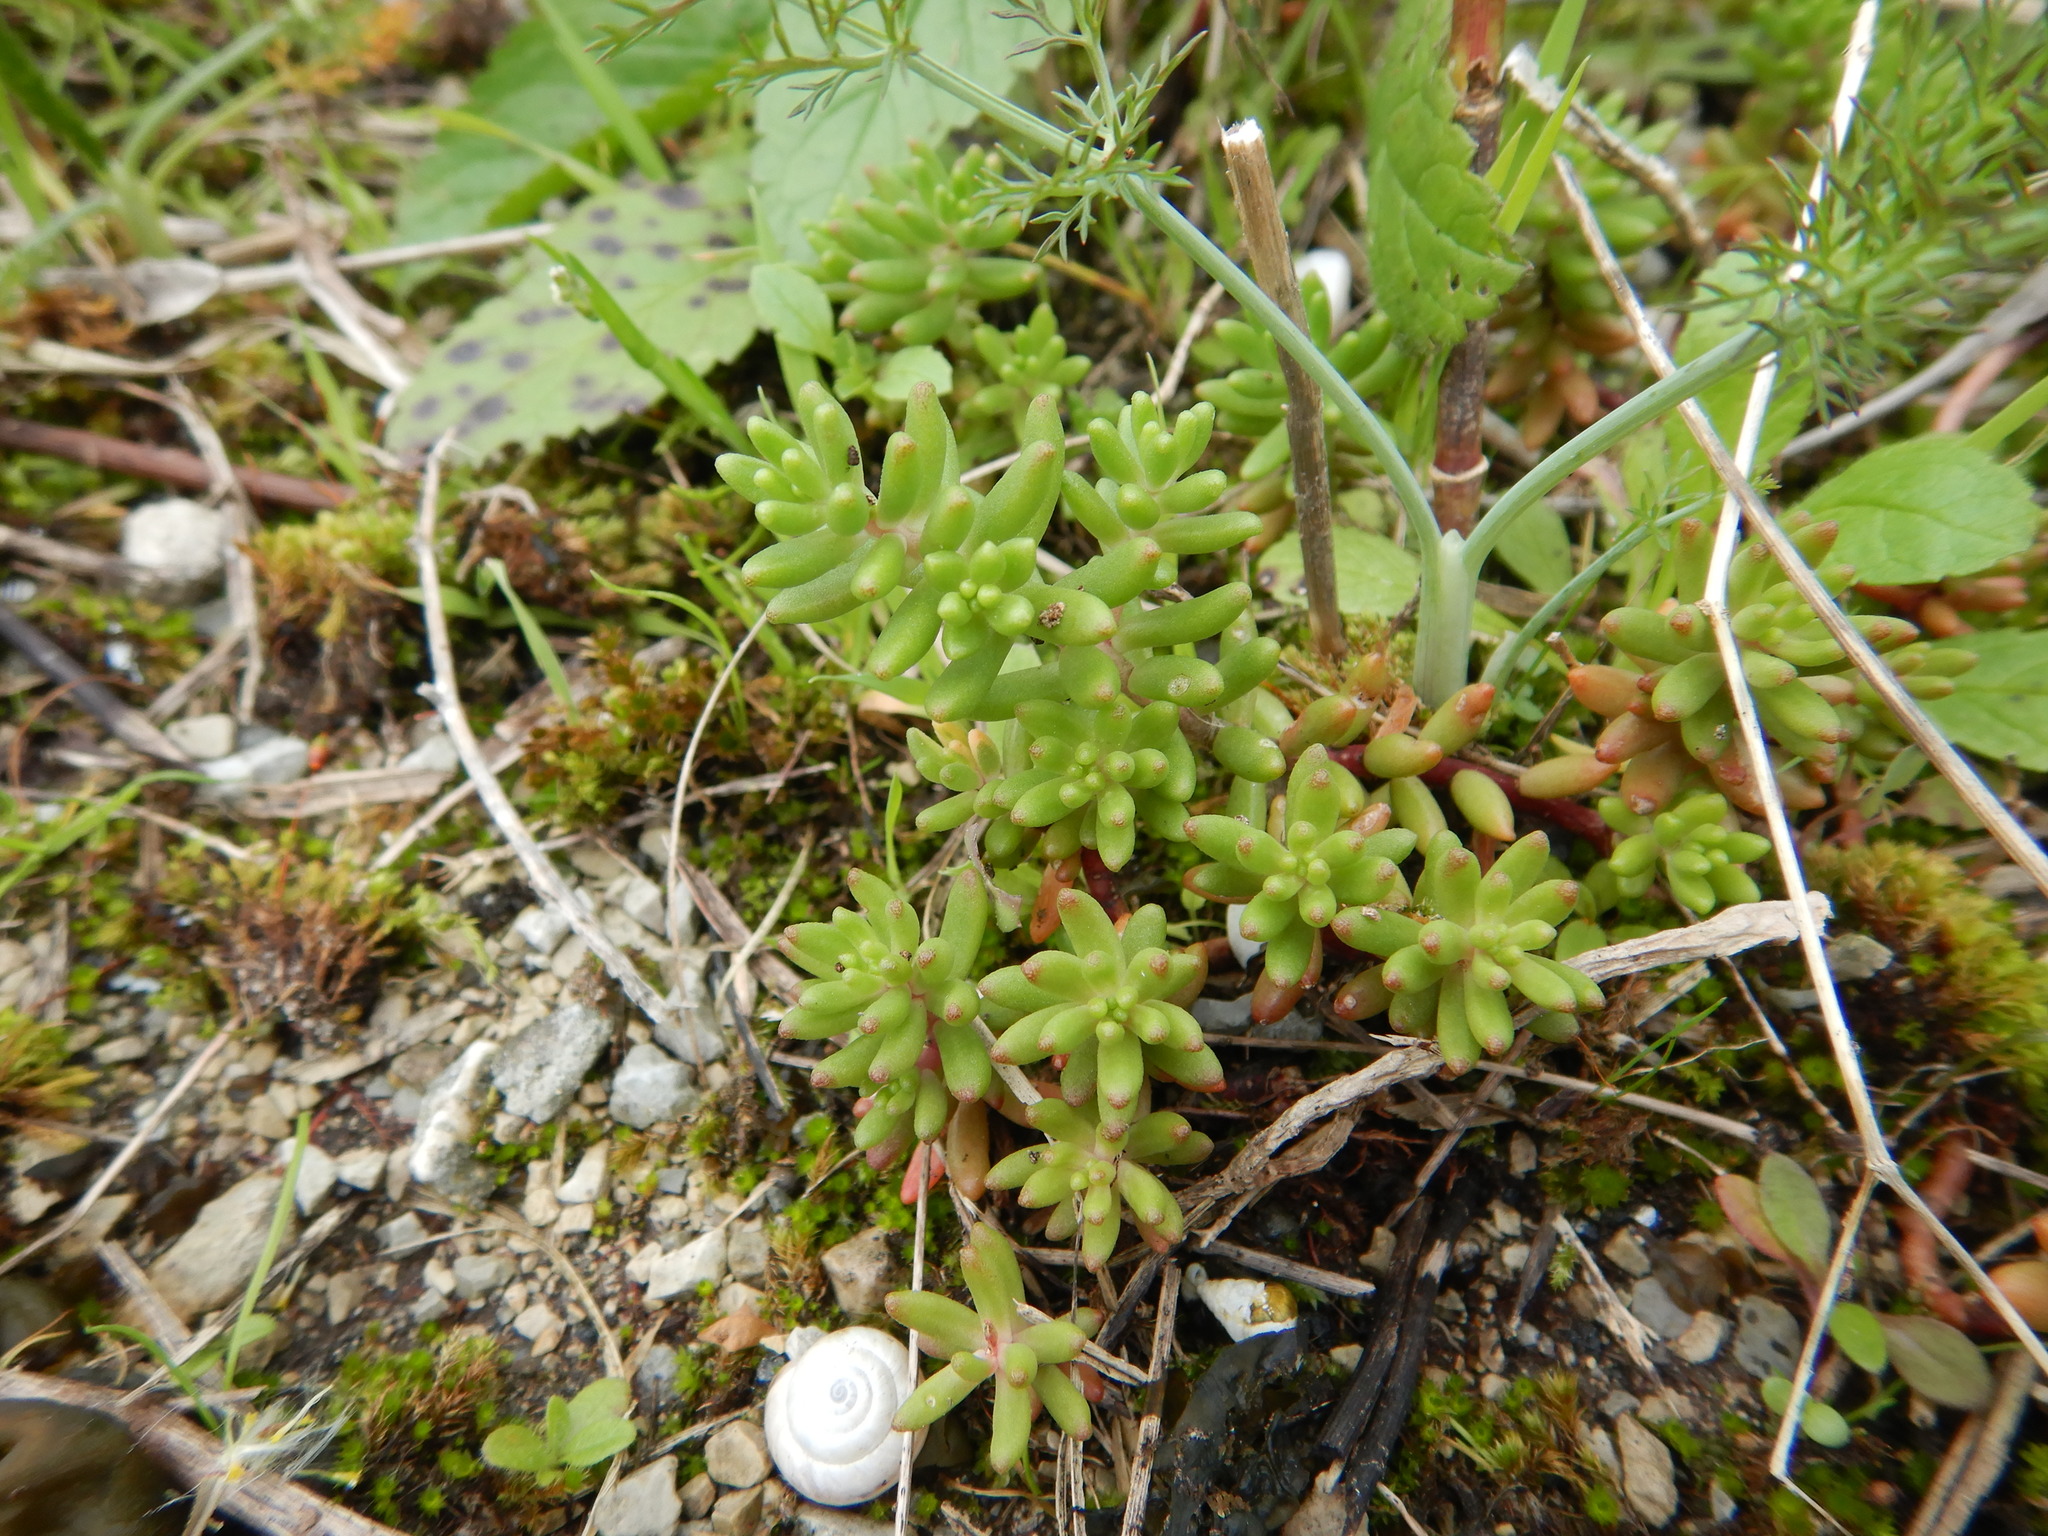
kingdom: Plantae
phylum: Tracheophyta
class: Magnoliopsida
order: Saxifragales
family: Crassulaceae
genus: Sedum
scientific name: Sedum album
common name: White stonecrop
